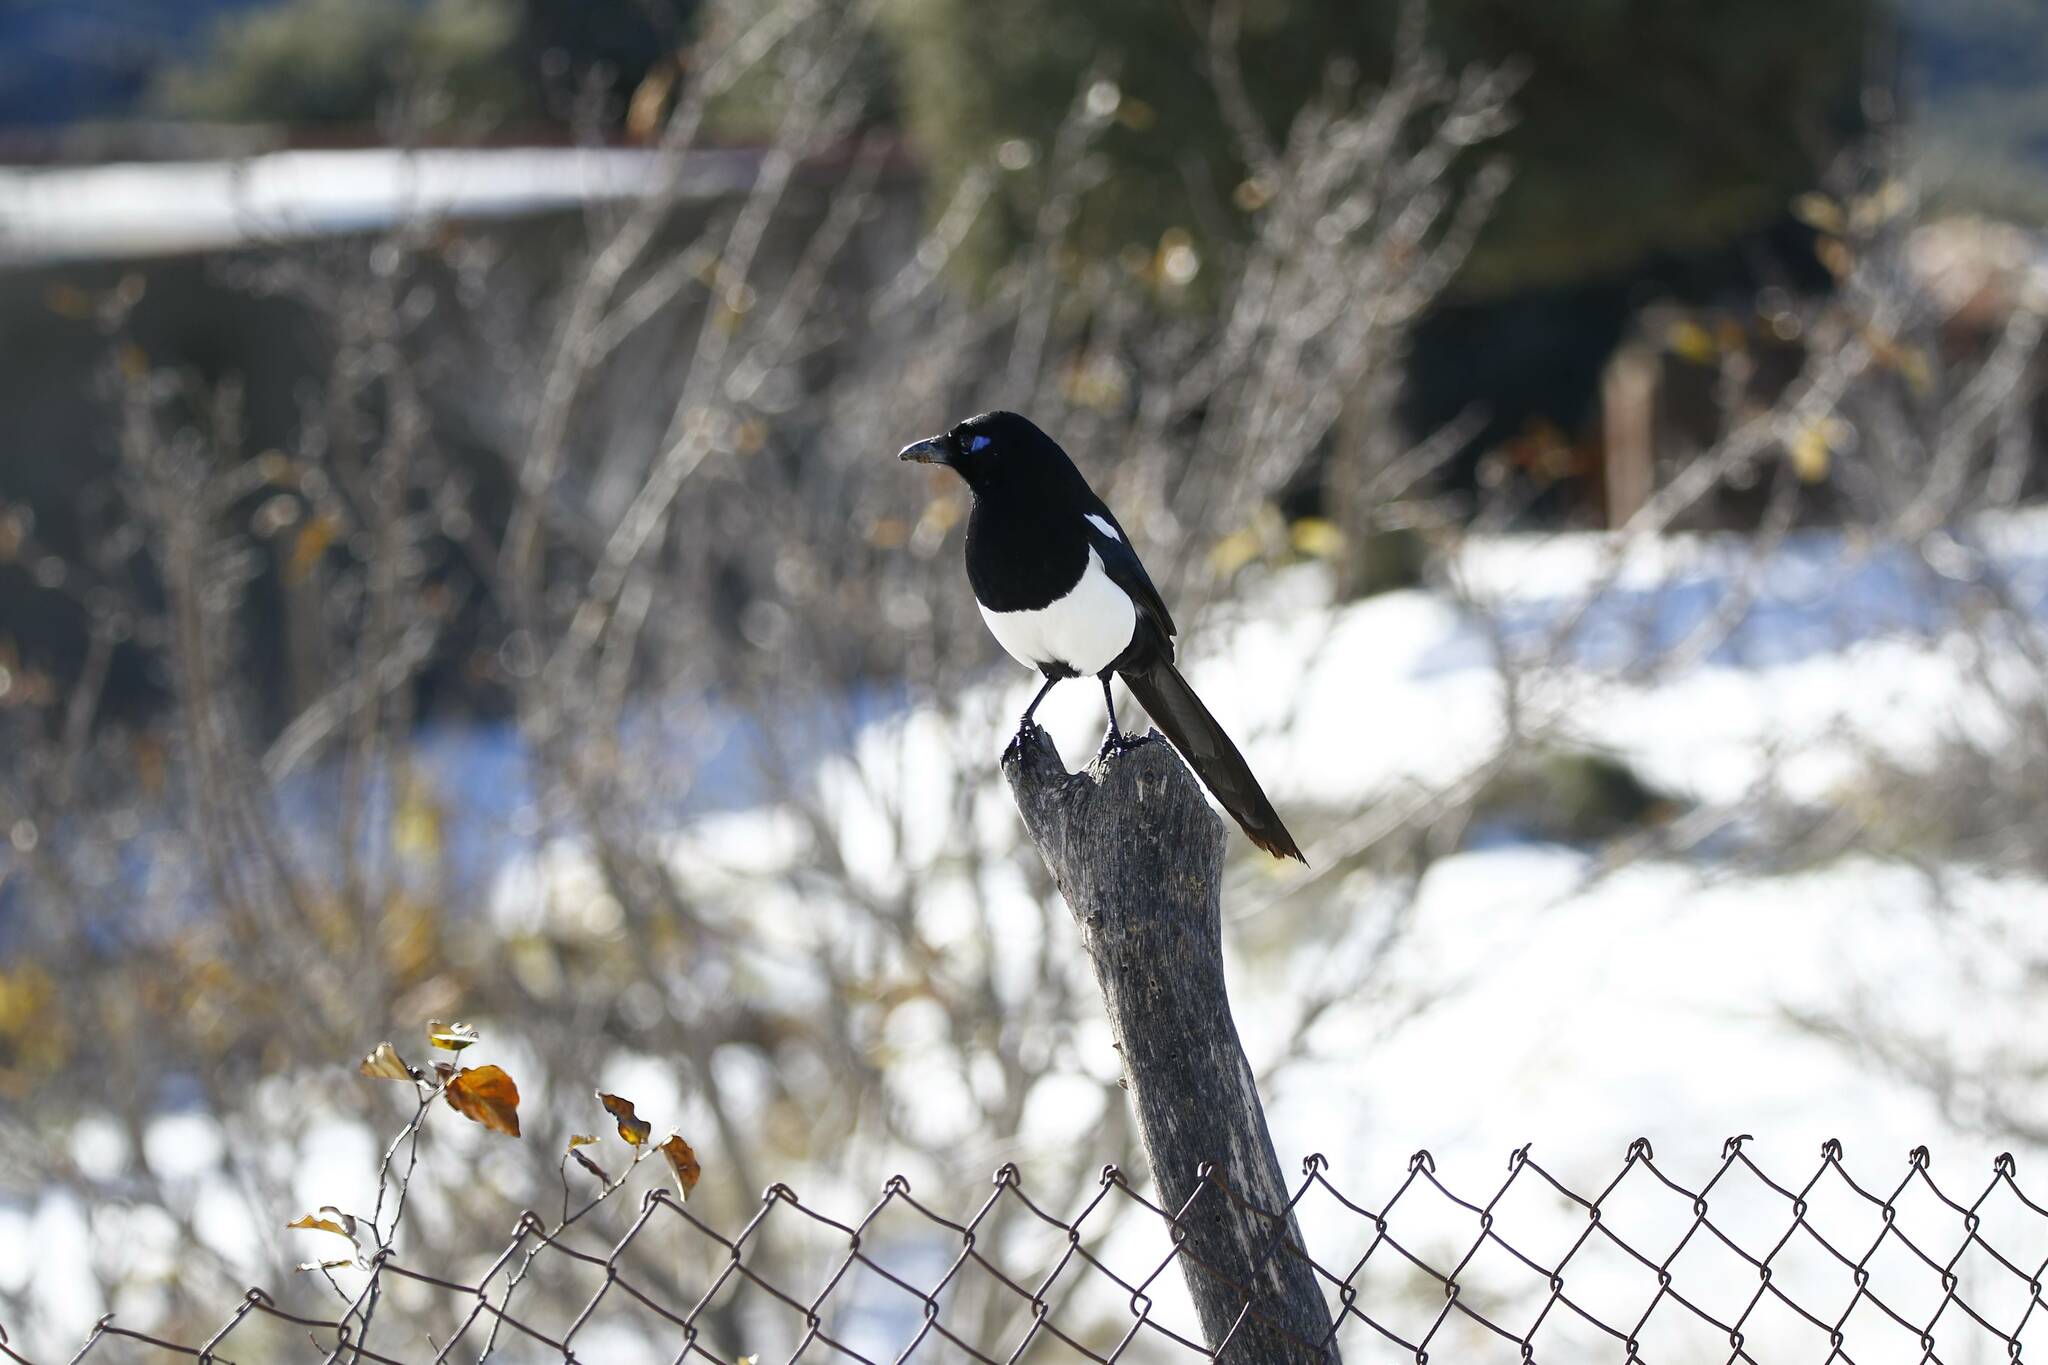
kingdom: Animalia
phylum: Chordata
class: Aves
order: Passeriformes
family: Corvidae
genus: Pica
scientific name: Pica mauritanica
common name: Maghreb magpie
